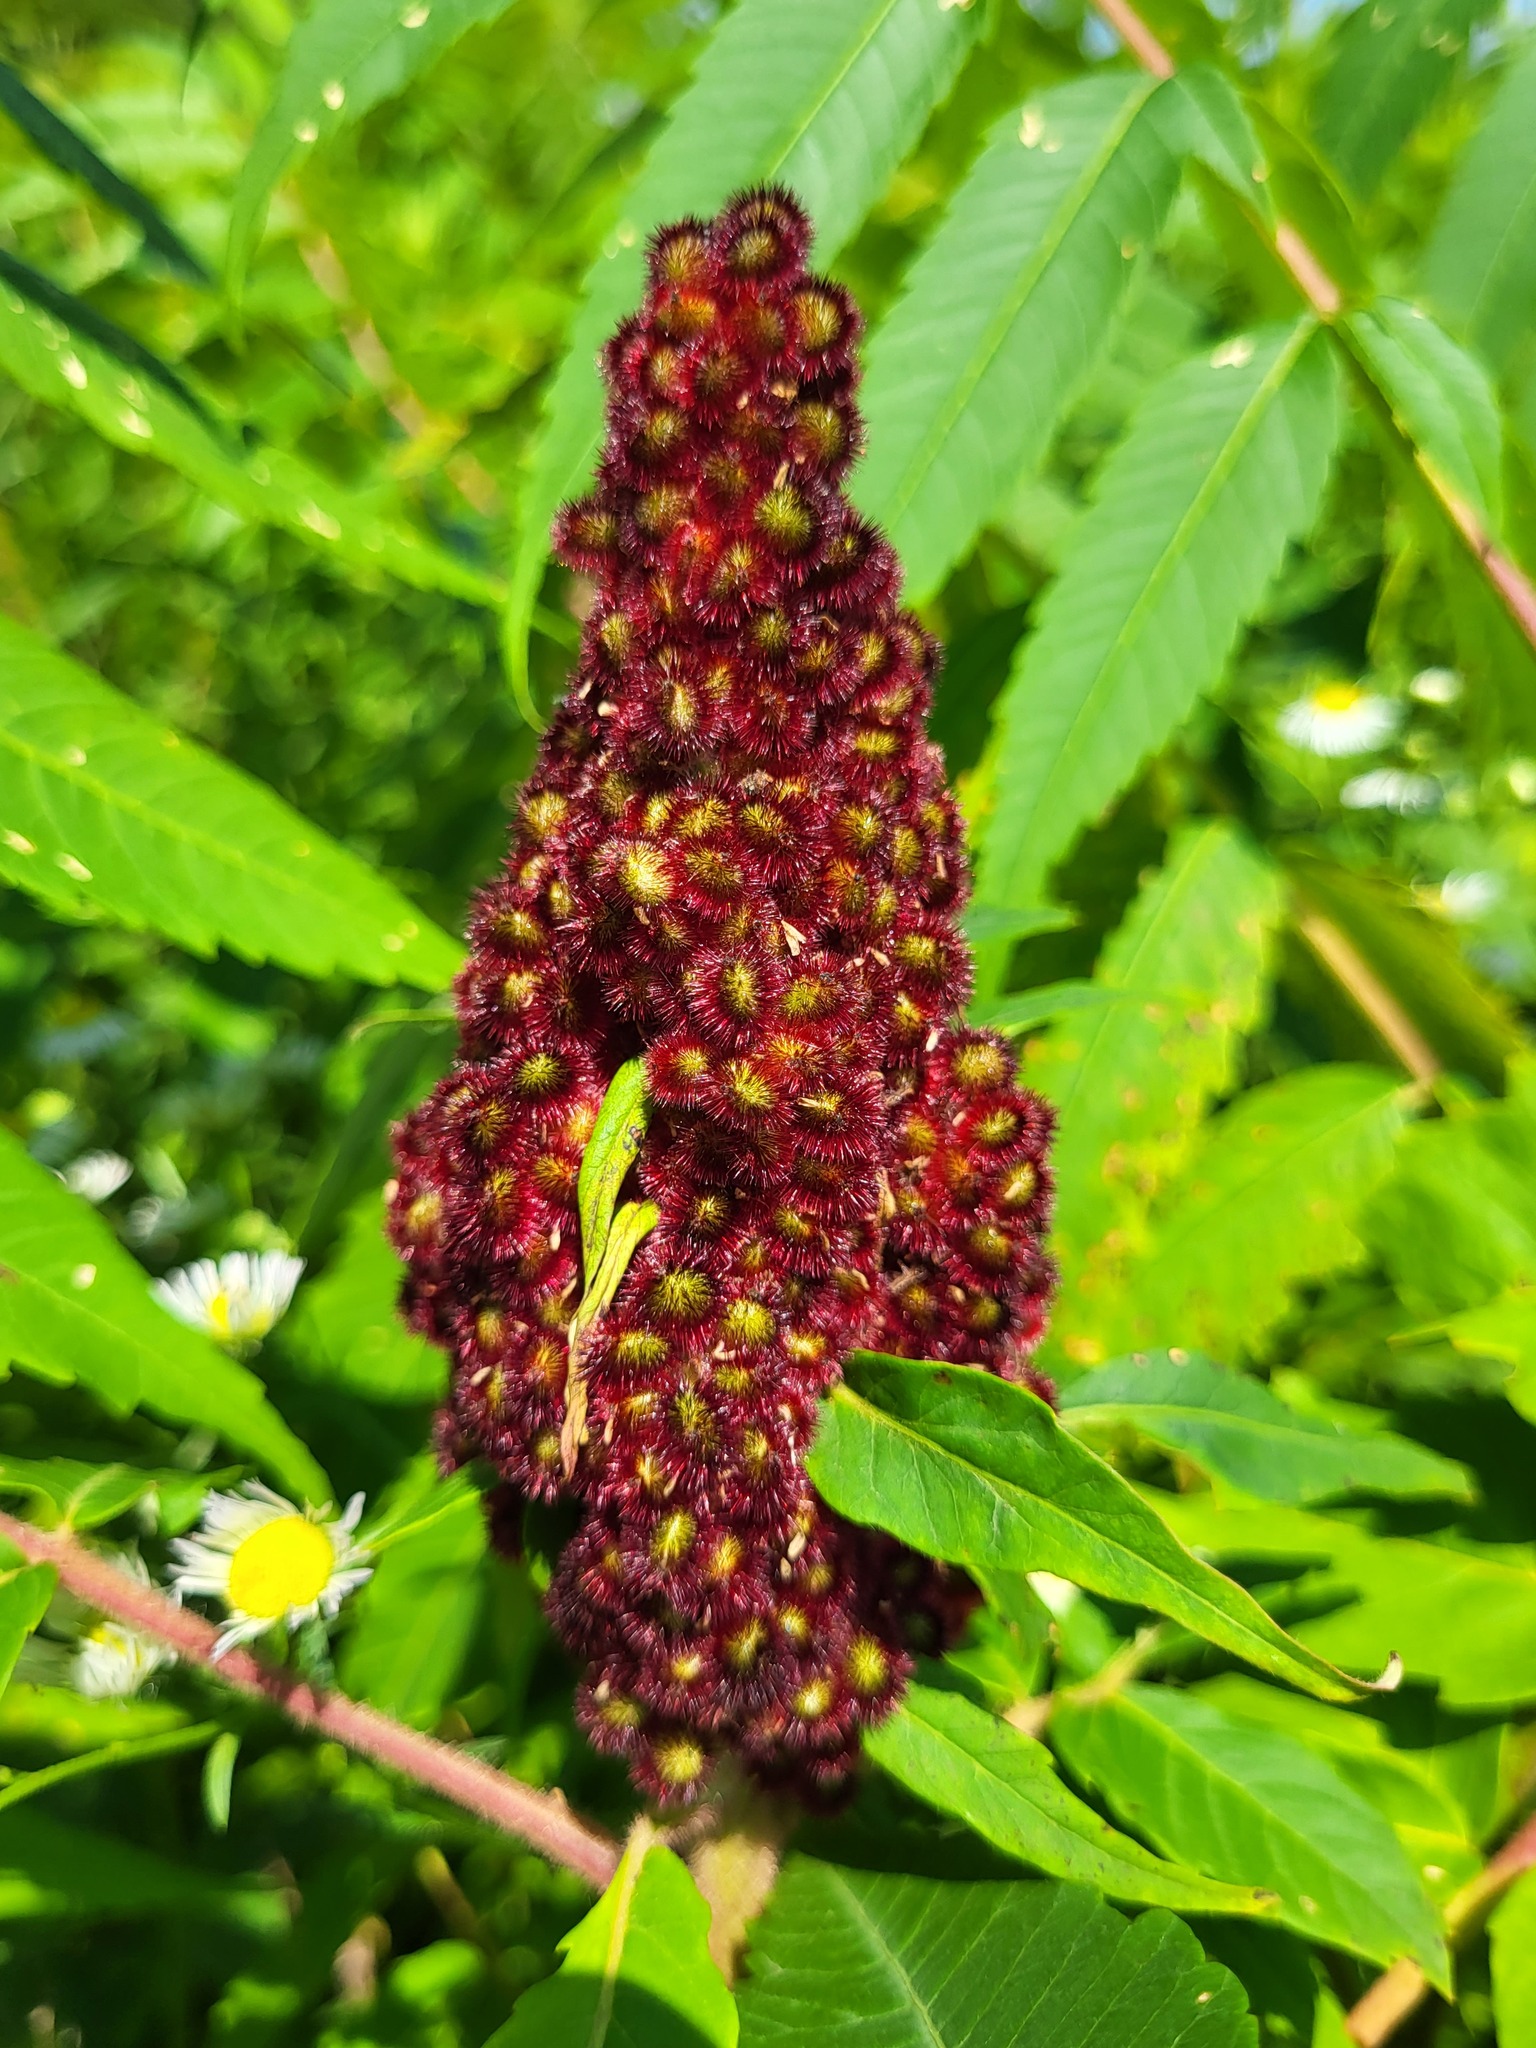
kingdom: Plantae
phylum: Tracheophyta
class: Magnoliopsida
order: Sapindales
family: Anacardiaceae
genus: Rhus
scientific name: Rhus typhina
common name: Staghorn sumac
